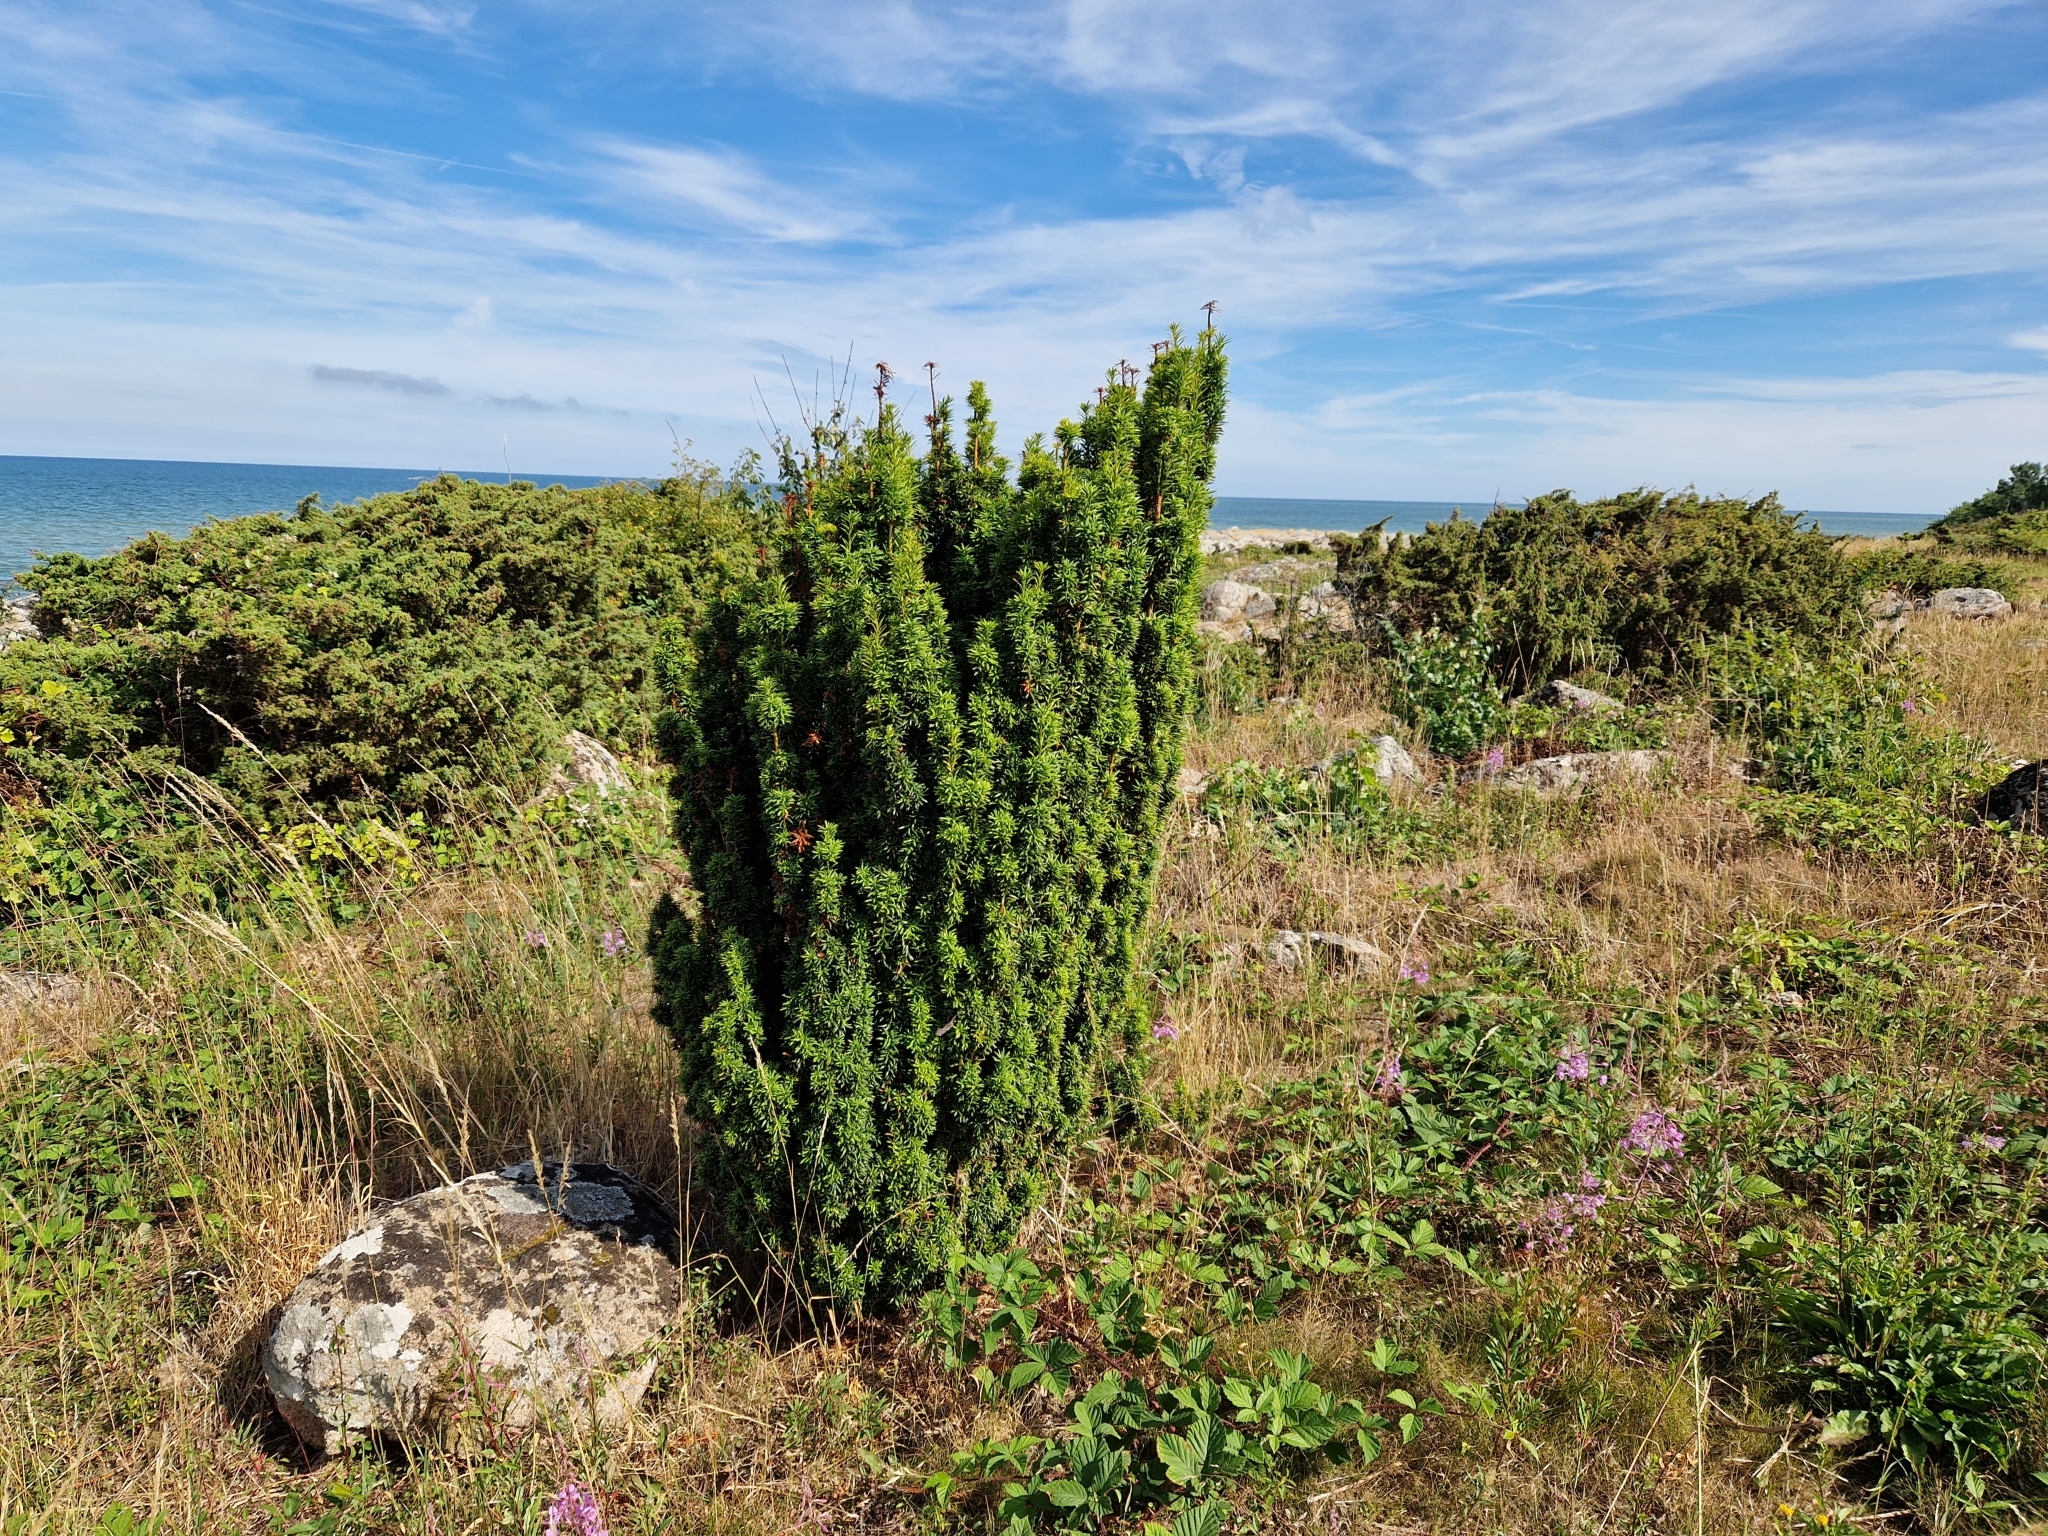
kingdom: Plantae
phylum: Tracheophyta
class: Pinopsida
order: Pinales
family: Taxaceae
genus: Taxus
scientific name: Taxus baccata
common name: Yew
